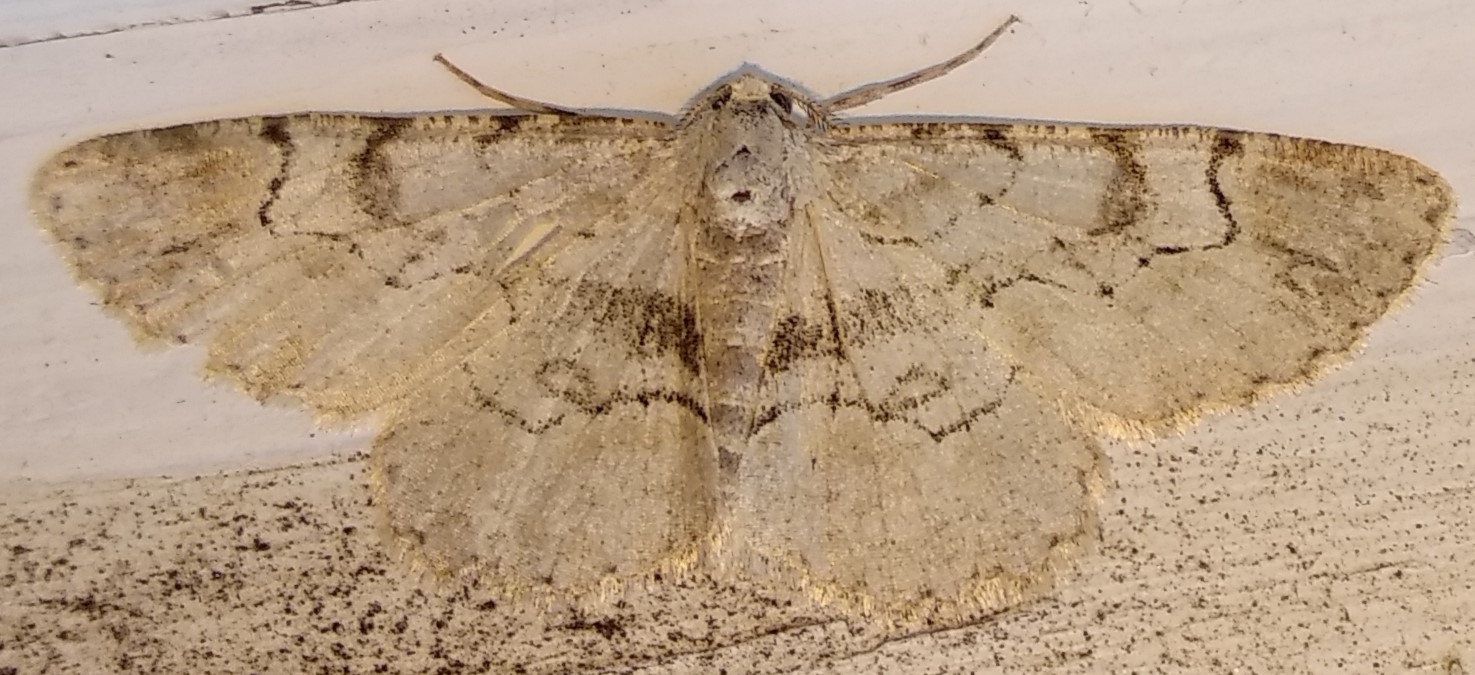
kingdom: Animalia
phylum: Arthropoda
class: Insecta
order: Lepidoptera
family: Geometridae
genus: Iridopsis
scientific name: Iridopsis larvaria
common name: Bent-line gray
